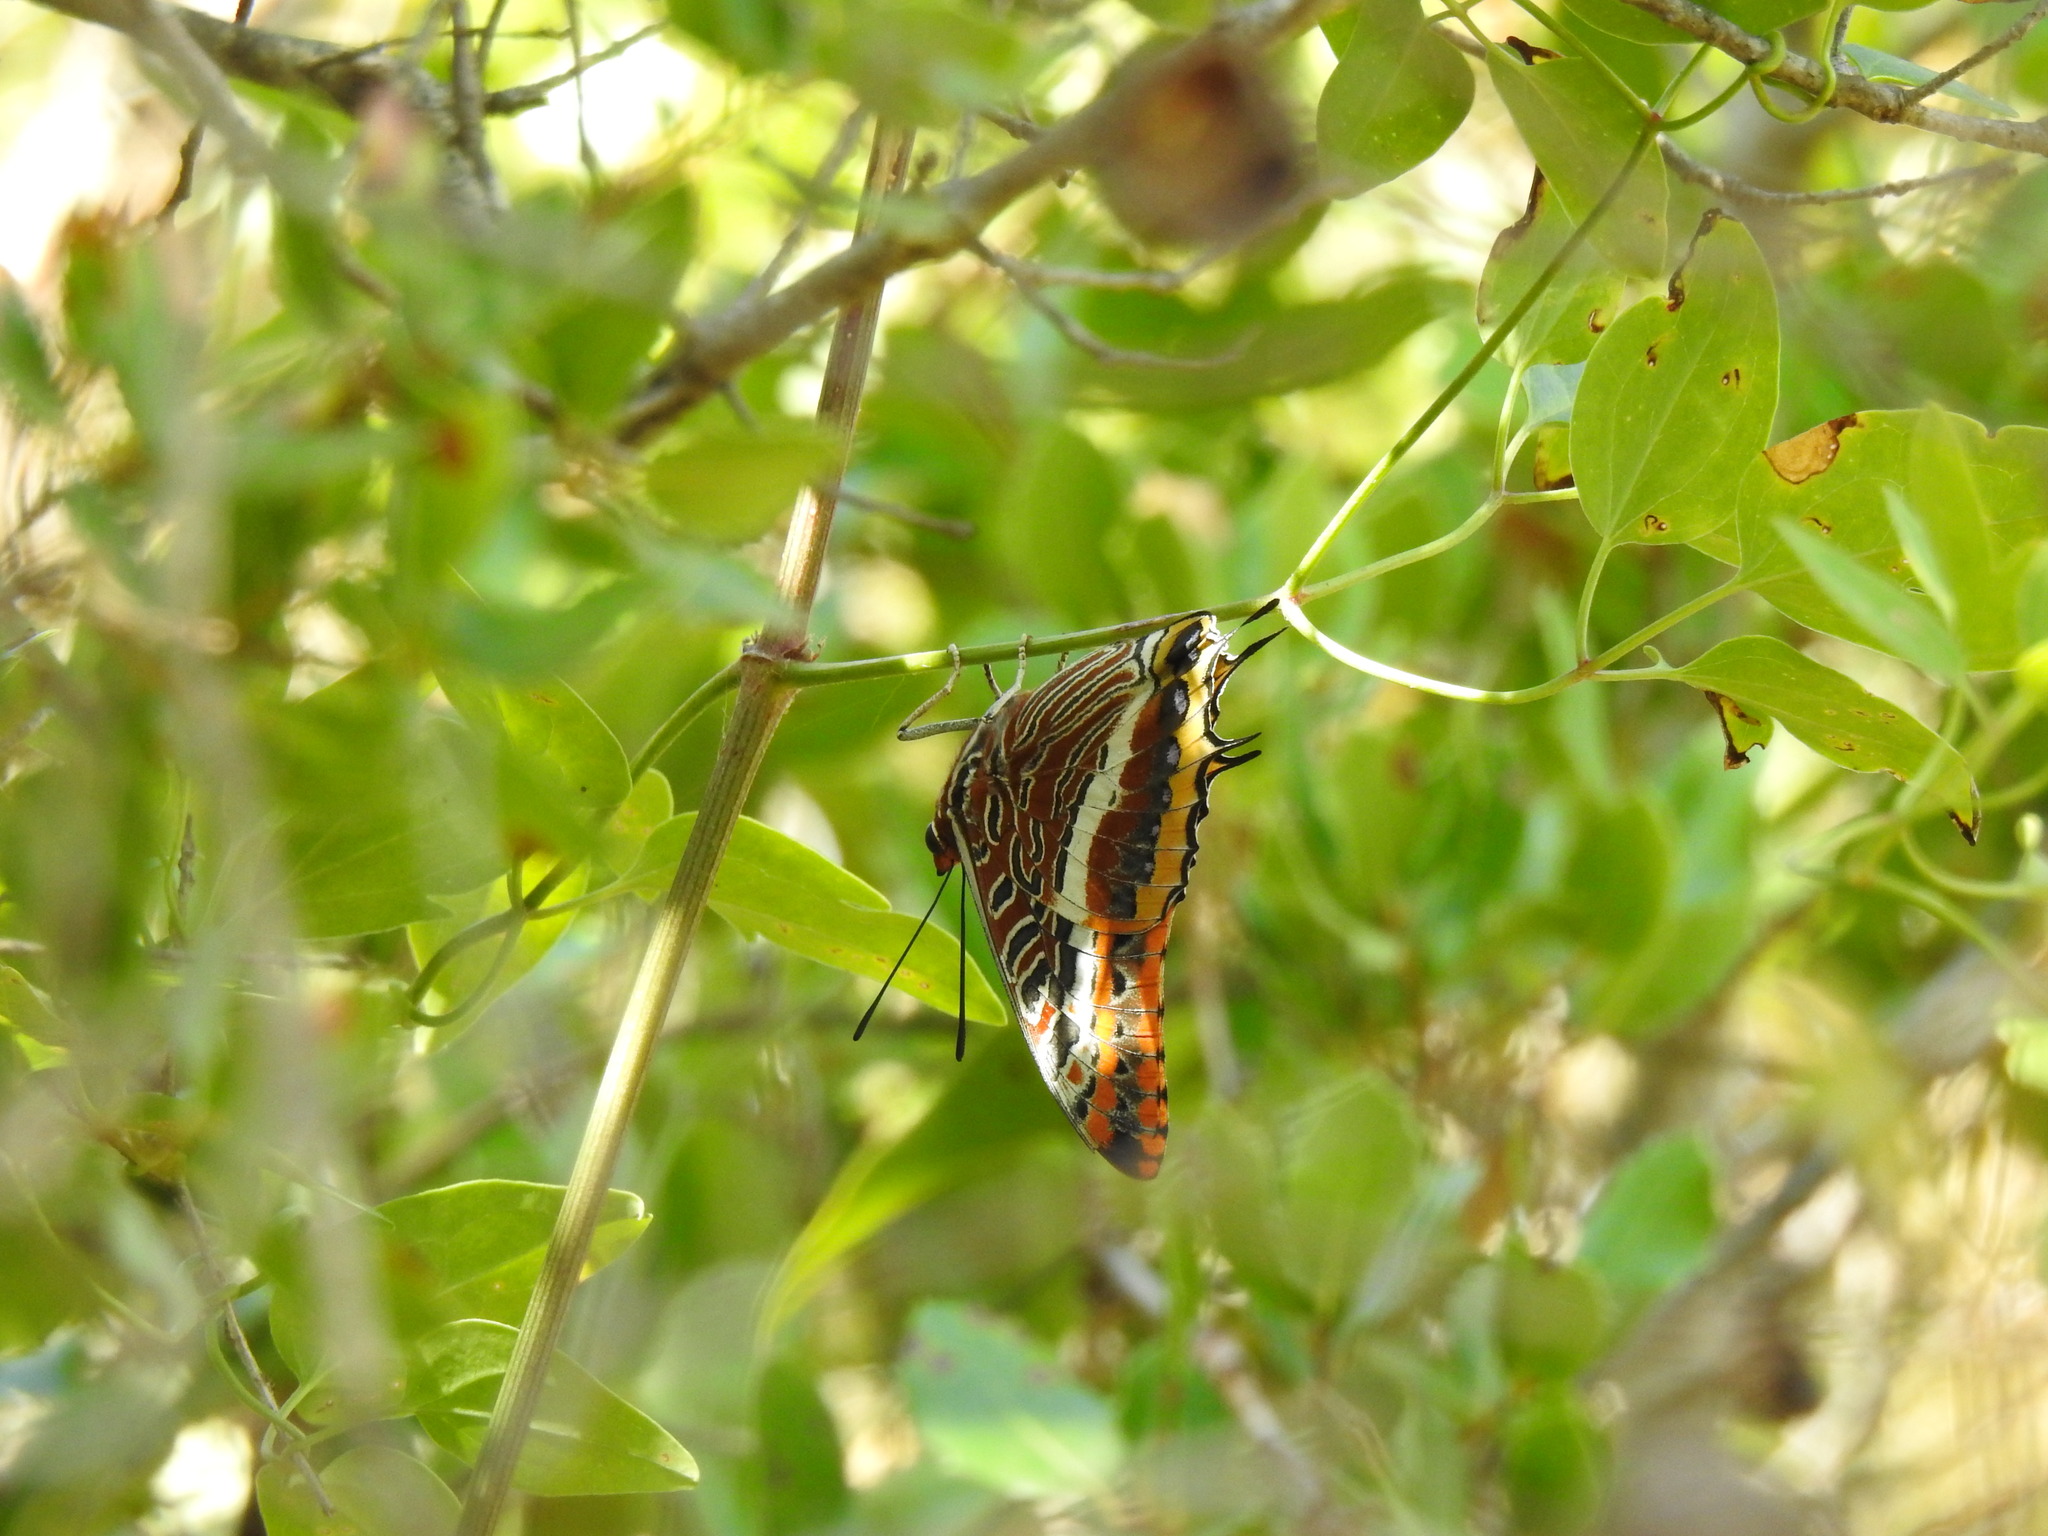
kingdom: Animalia
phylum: Arthropoda
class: Insecta
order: Lepidoptera
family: Nymphalidae
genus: Charaxes
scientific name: Charaxes jasius
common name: Two tailed pasha
